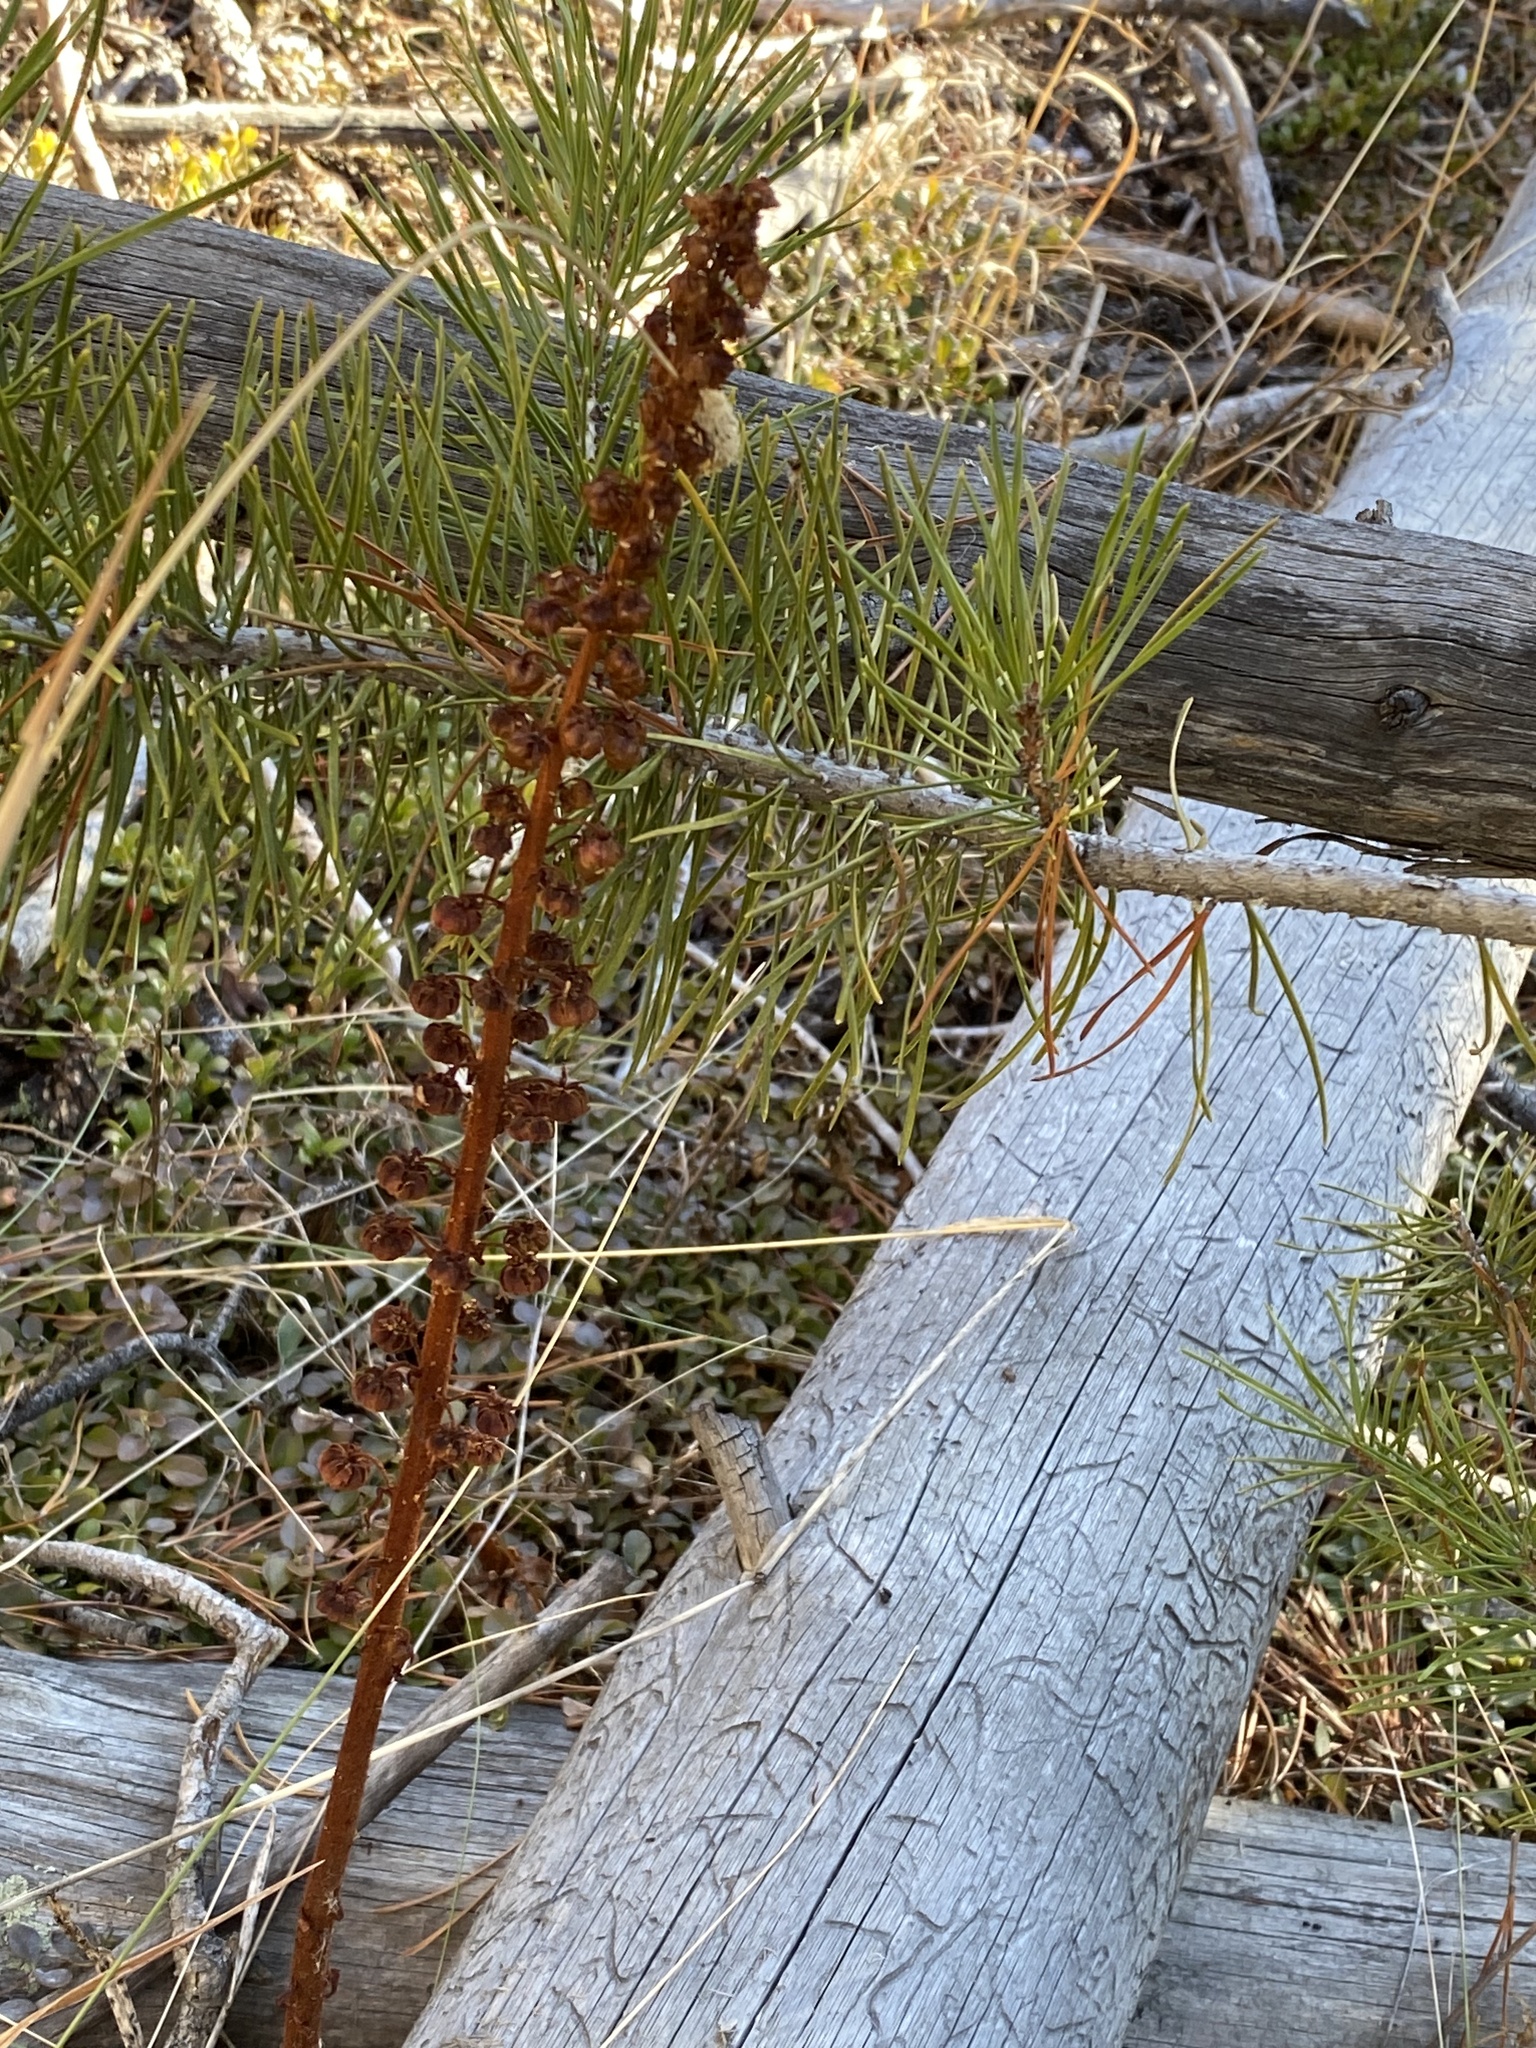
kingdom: Plantae
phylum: Tracheophyta
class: Magnoliopsida
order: Ericales
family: Ericaceae
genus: Pterospora
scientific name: Pterospora andromedea
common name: Giant bird's-nest
